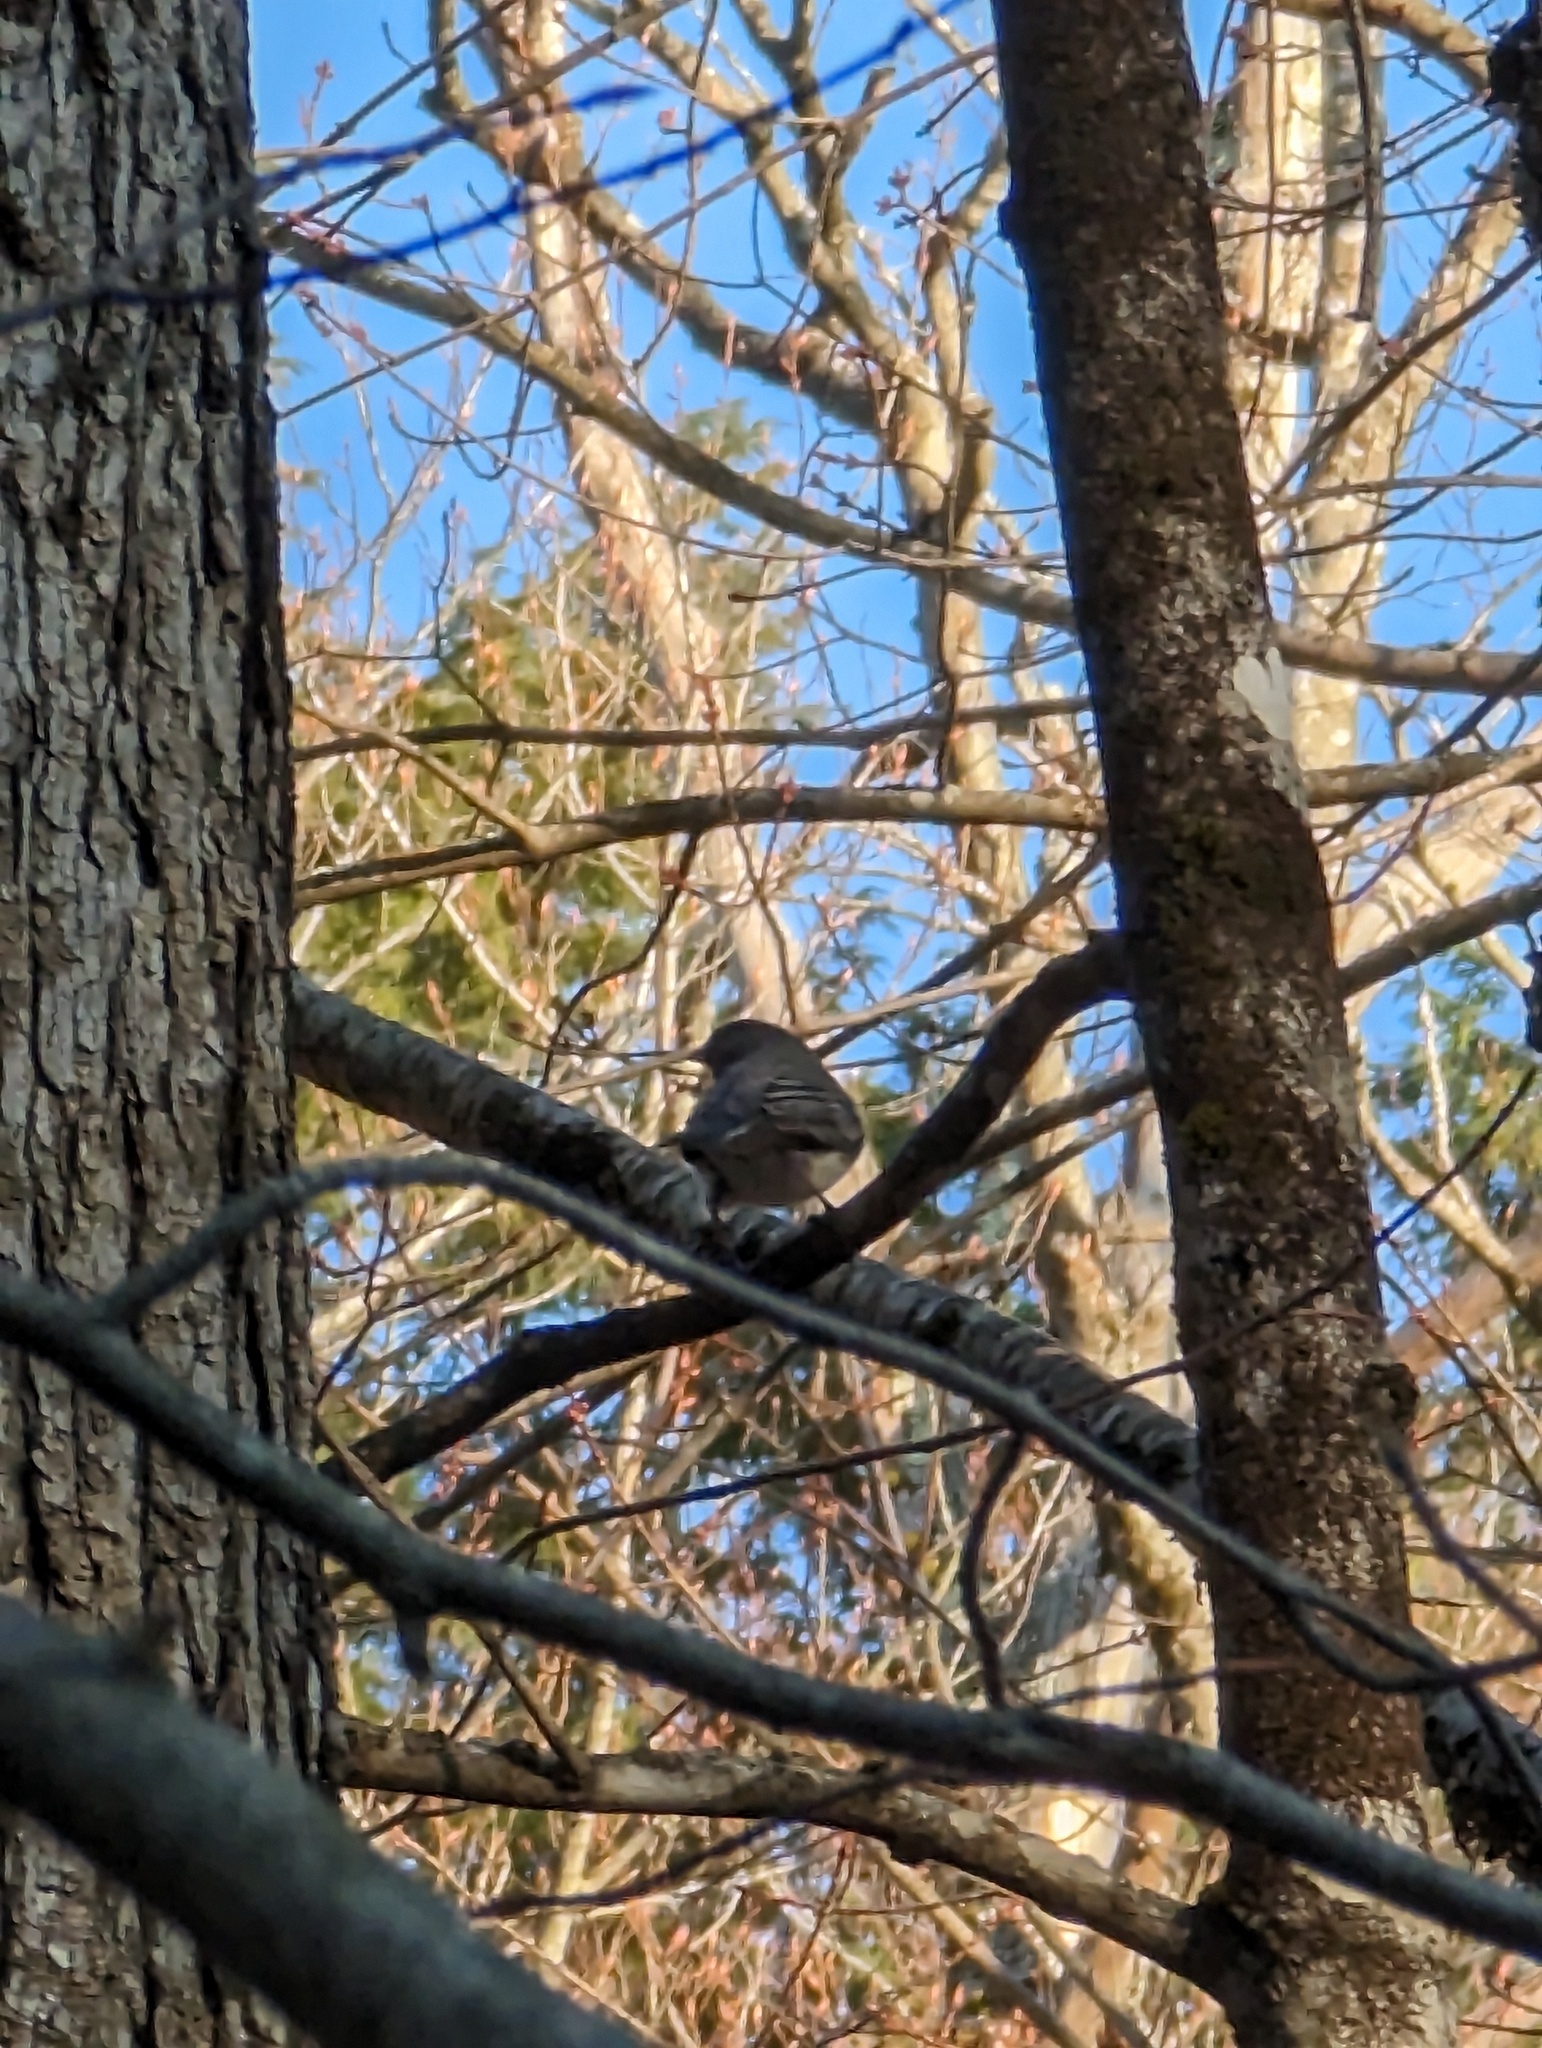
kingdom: Animalia
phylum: Chordata
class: Aves
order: Passeriformes
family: Passerellidae
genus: Junco
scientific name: Junco hyemalis
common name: Dark-eyed junco
